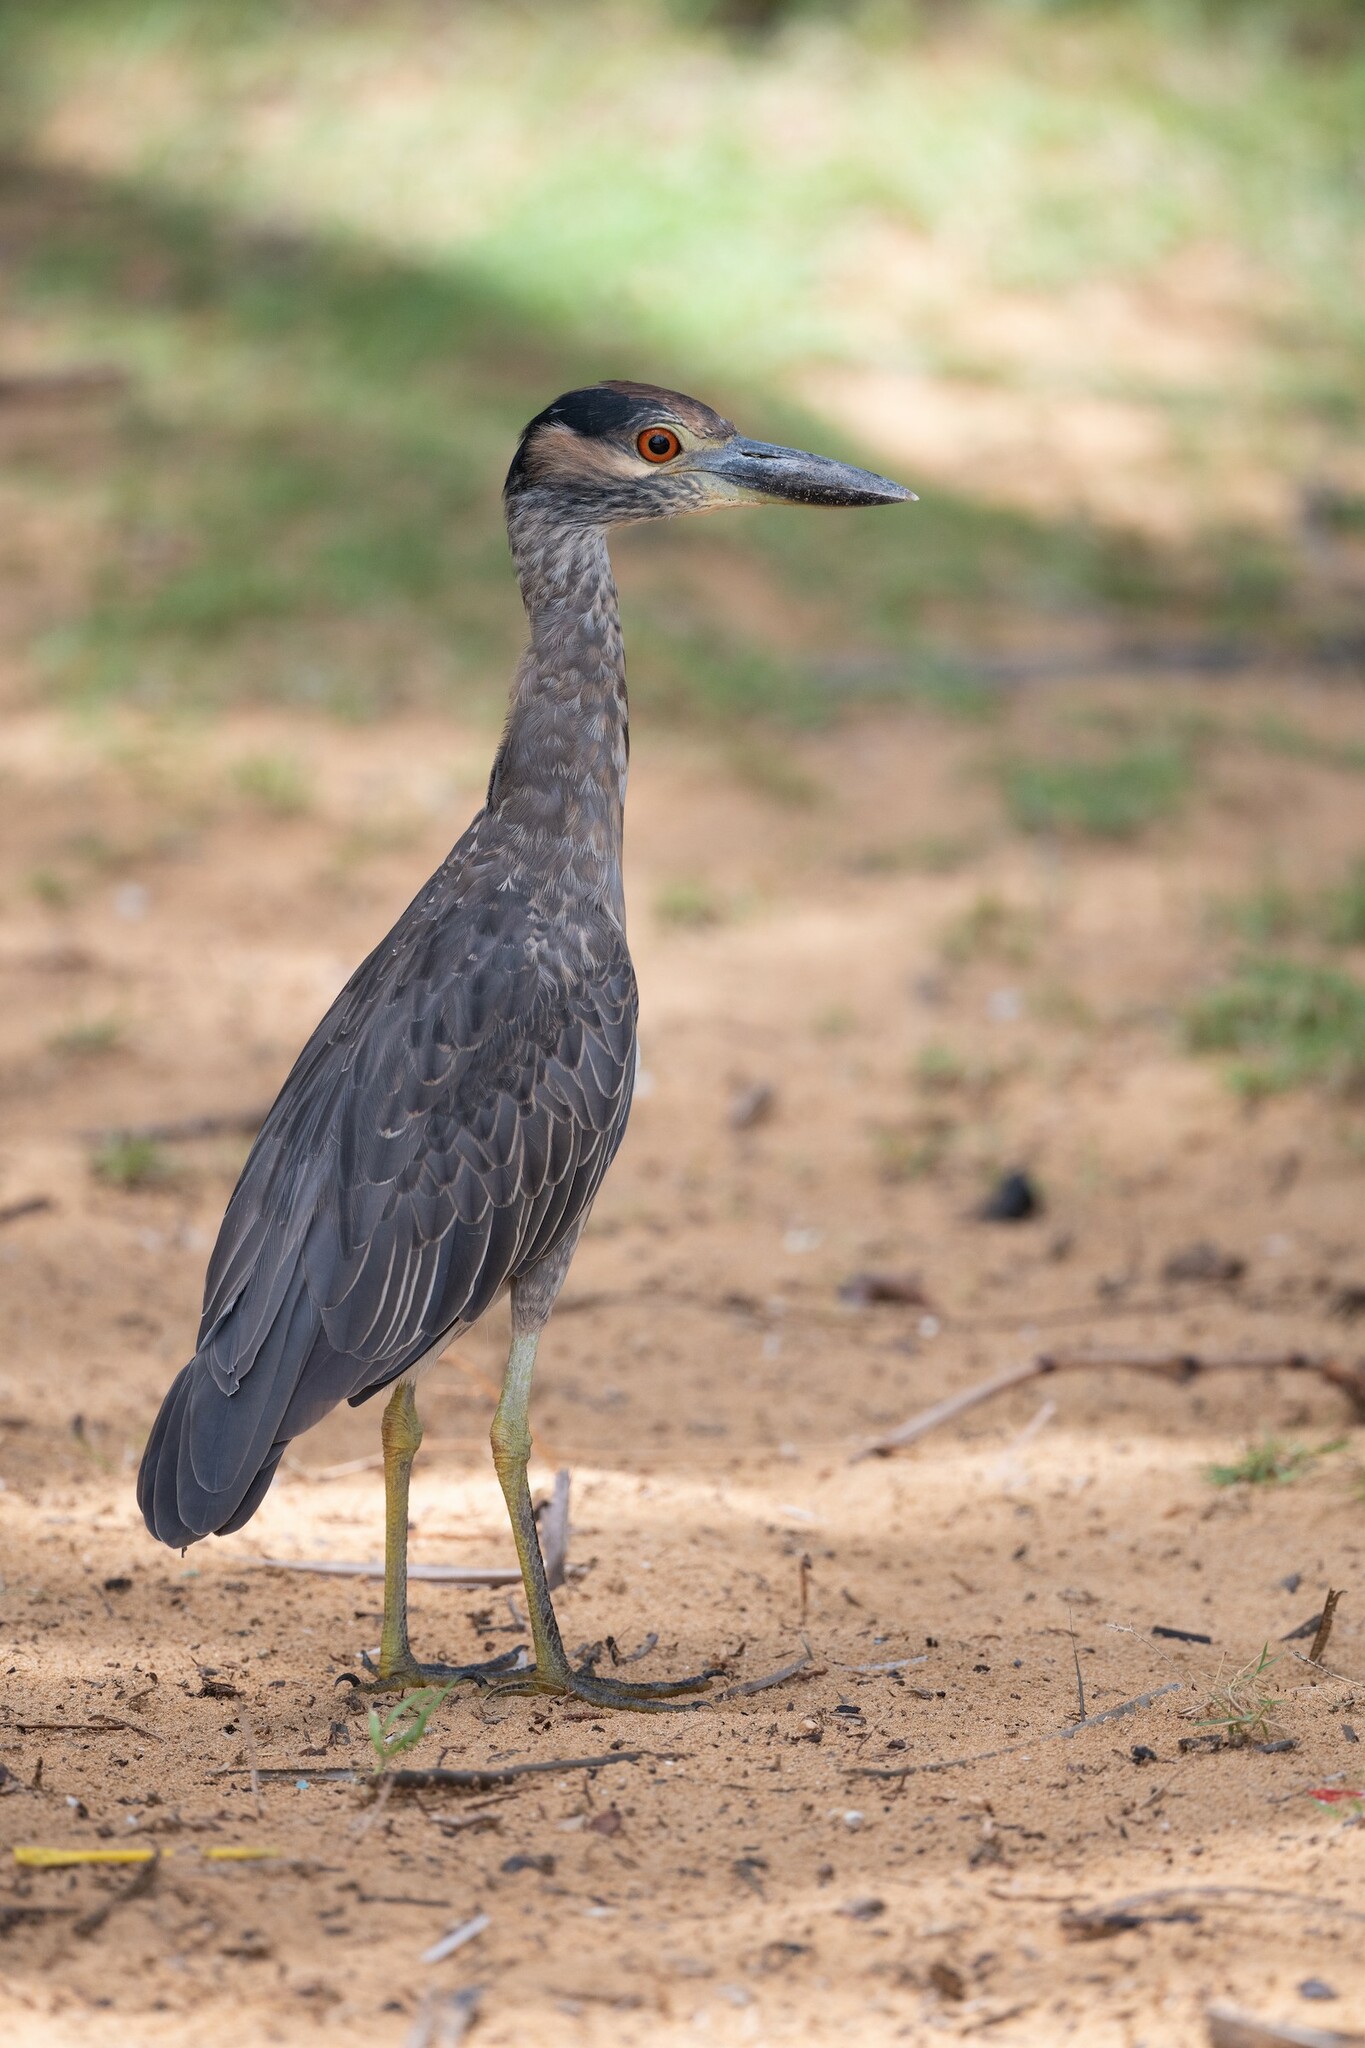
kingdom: Animalia
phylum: Chordata
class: Aves
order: Pelecaniformes
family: Ardeidae
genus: Nyctanassa
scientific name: Nyctanassa violacea
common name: Yellow-crowned night heron
